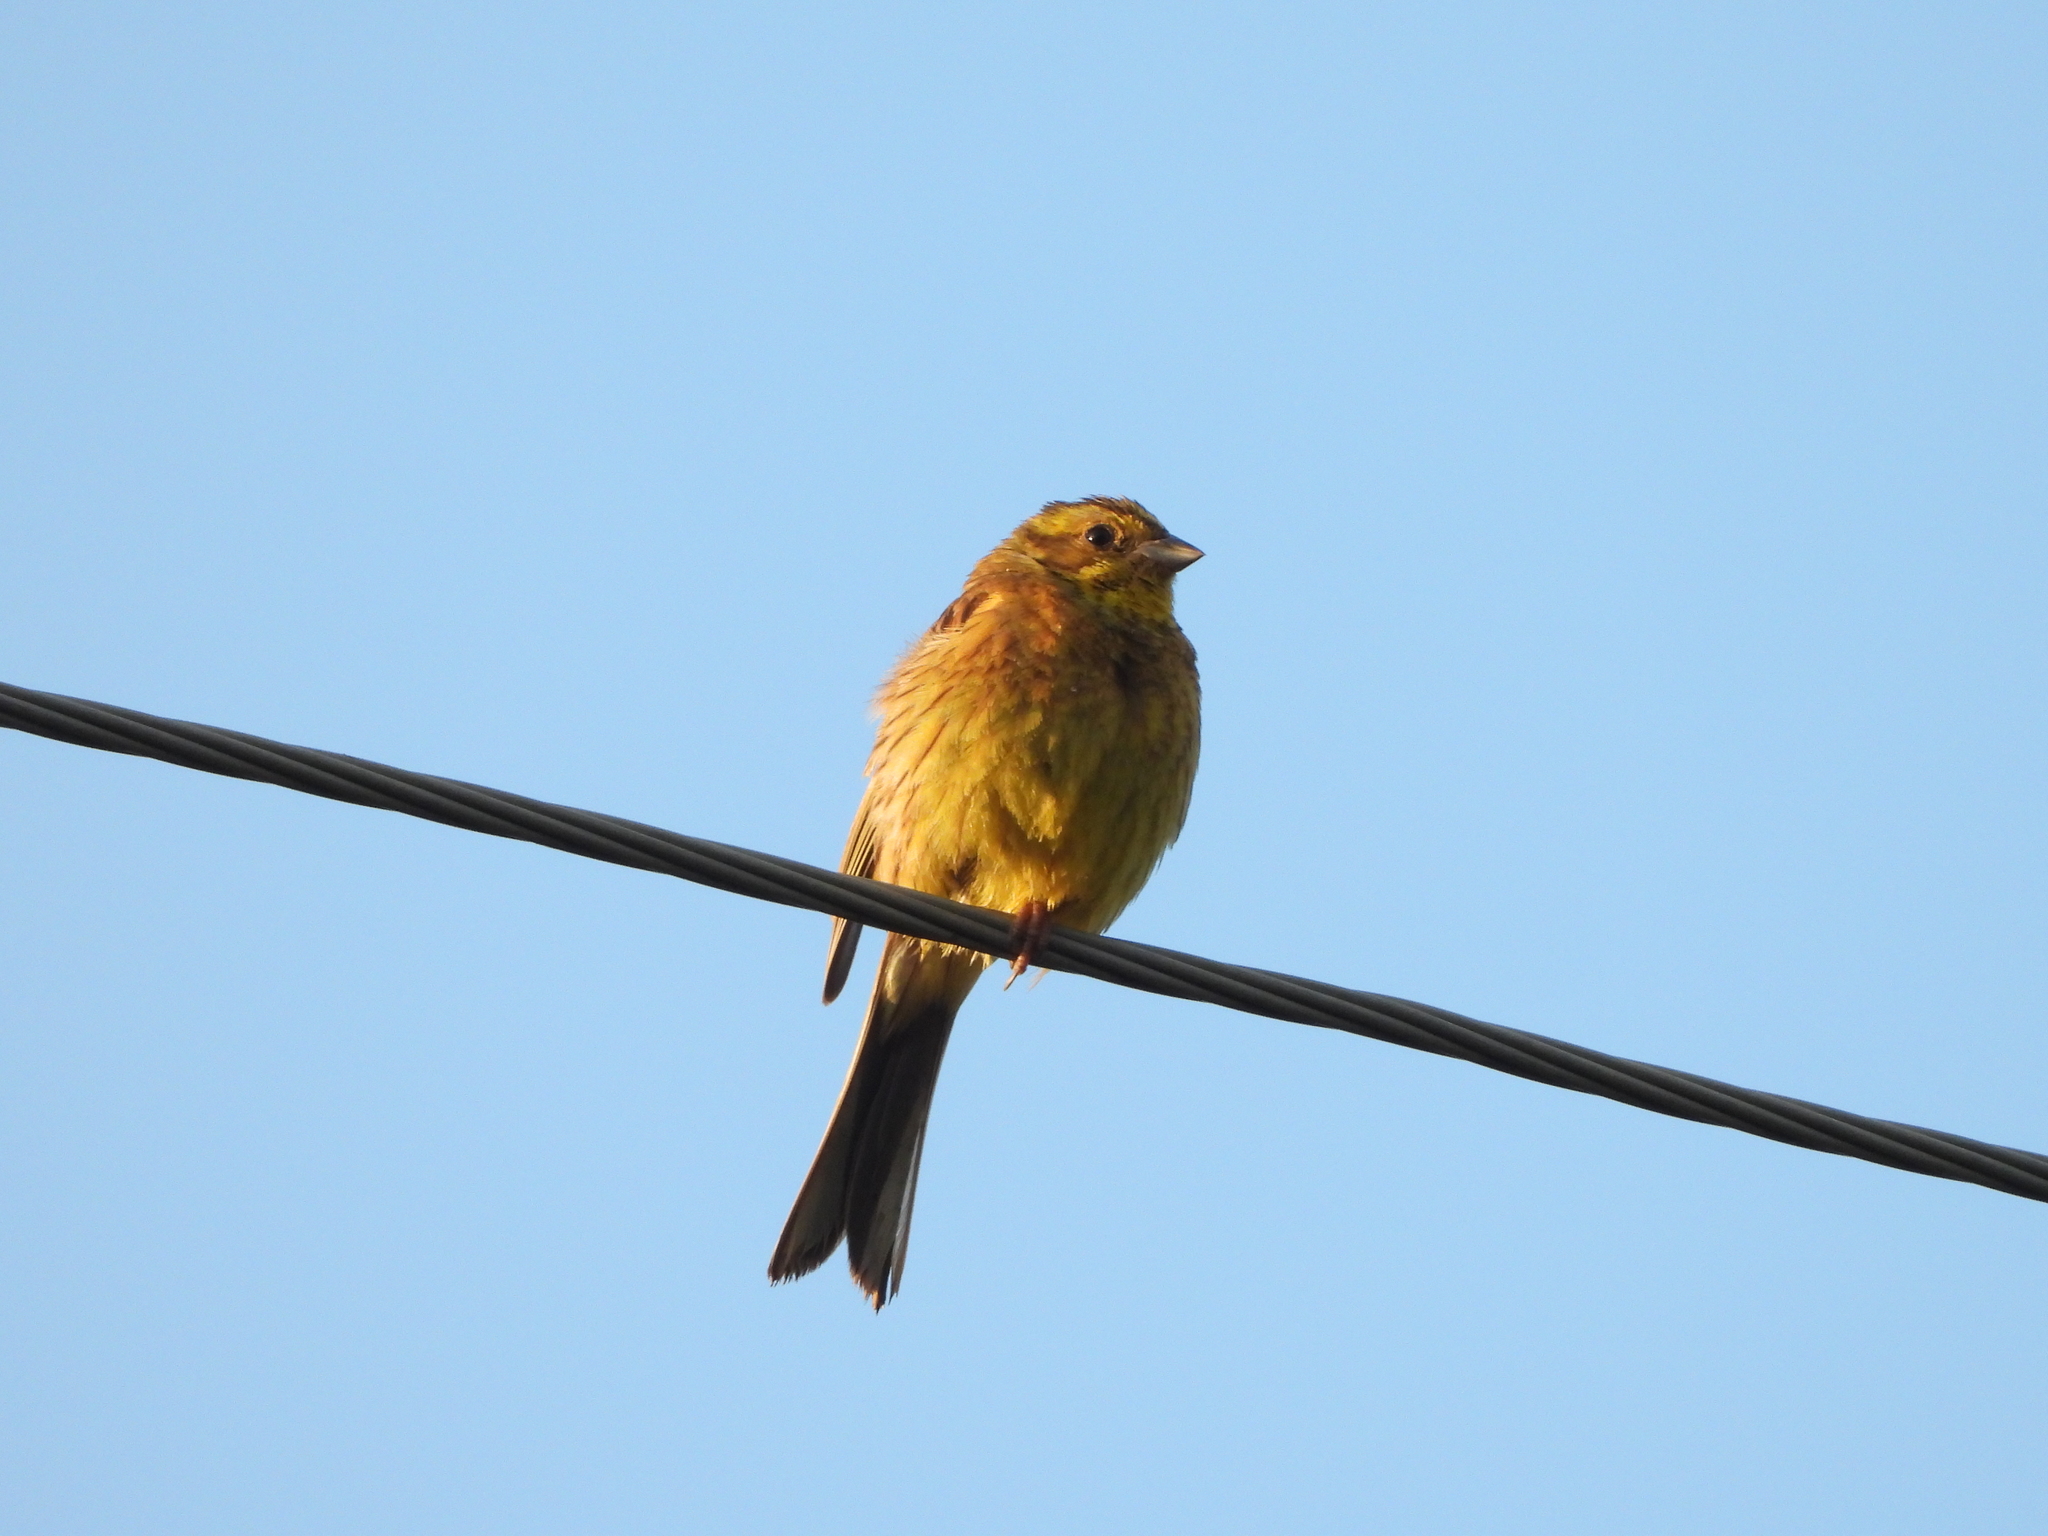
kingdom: Animalia
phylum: Chordata
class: Aves
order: Passeriformes
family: Emberizidae
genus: Emberiza
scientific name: Emberiza citrinella
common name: Yellowhammer
